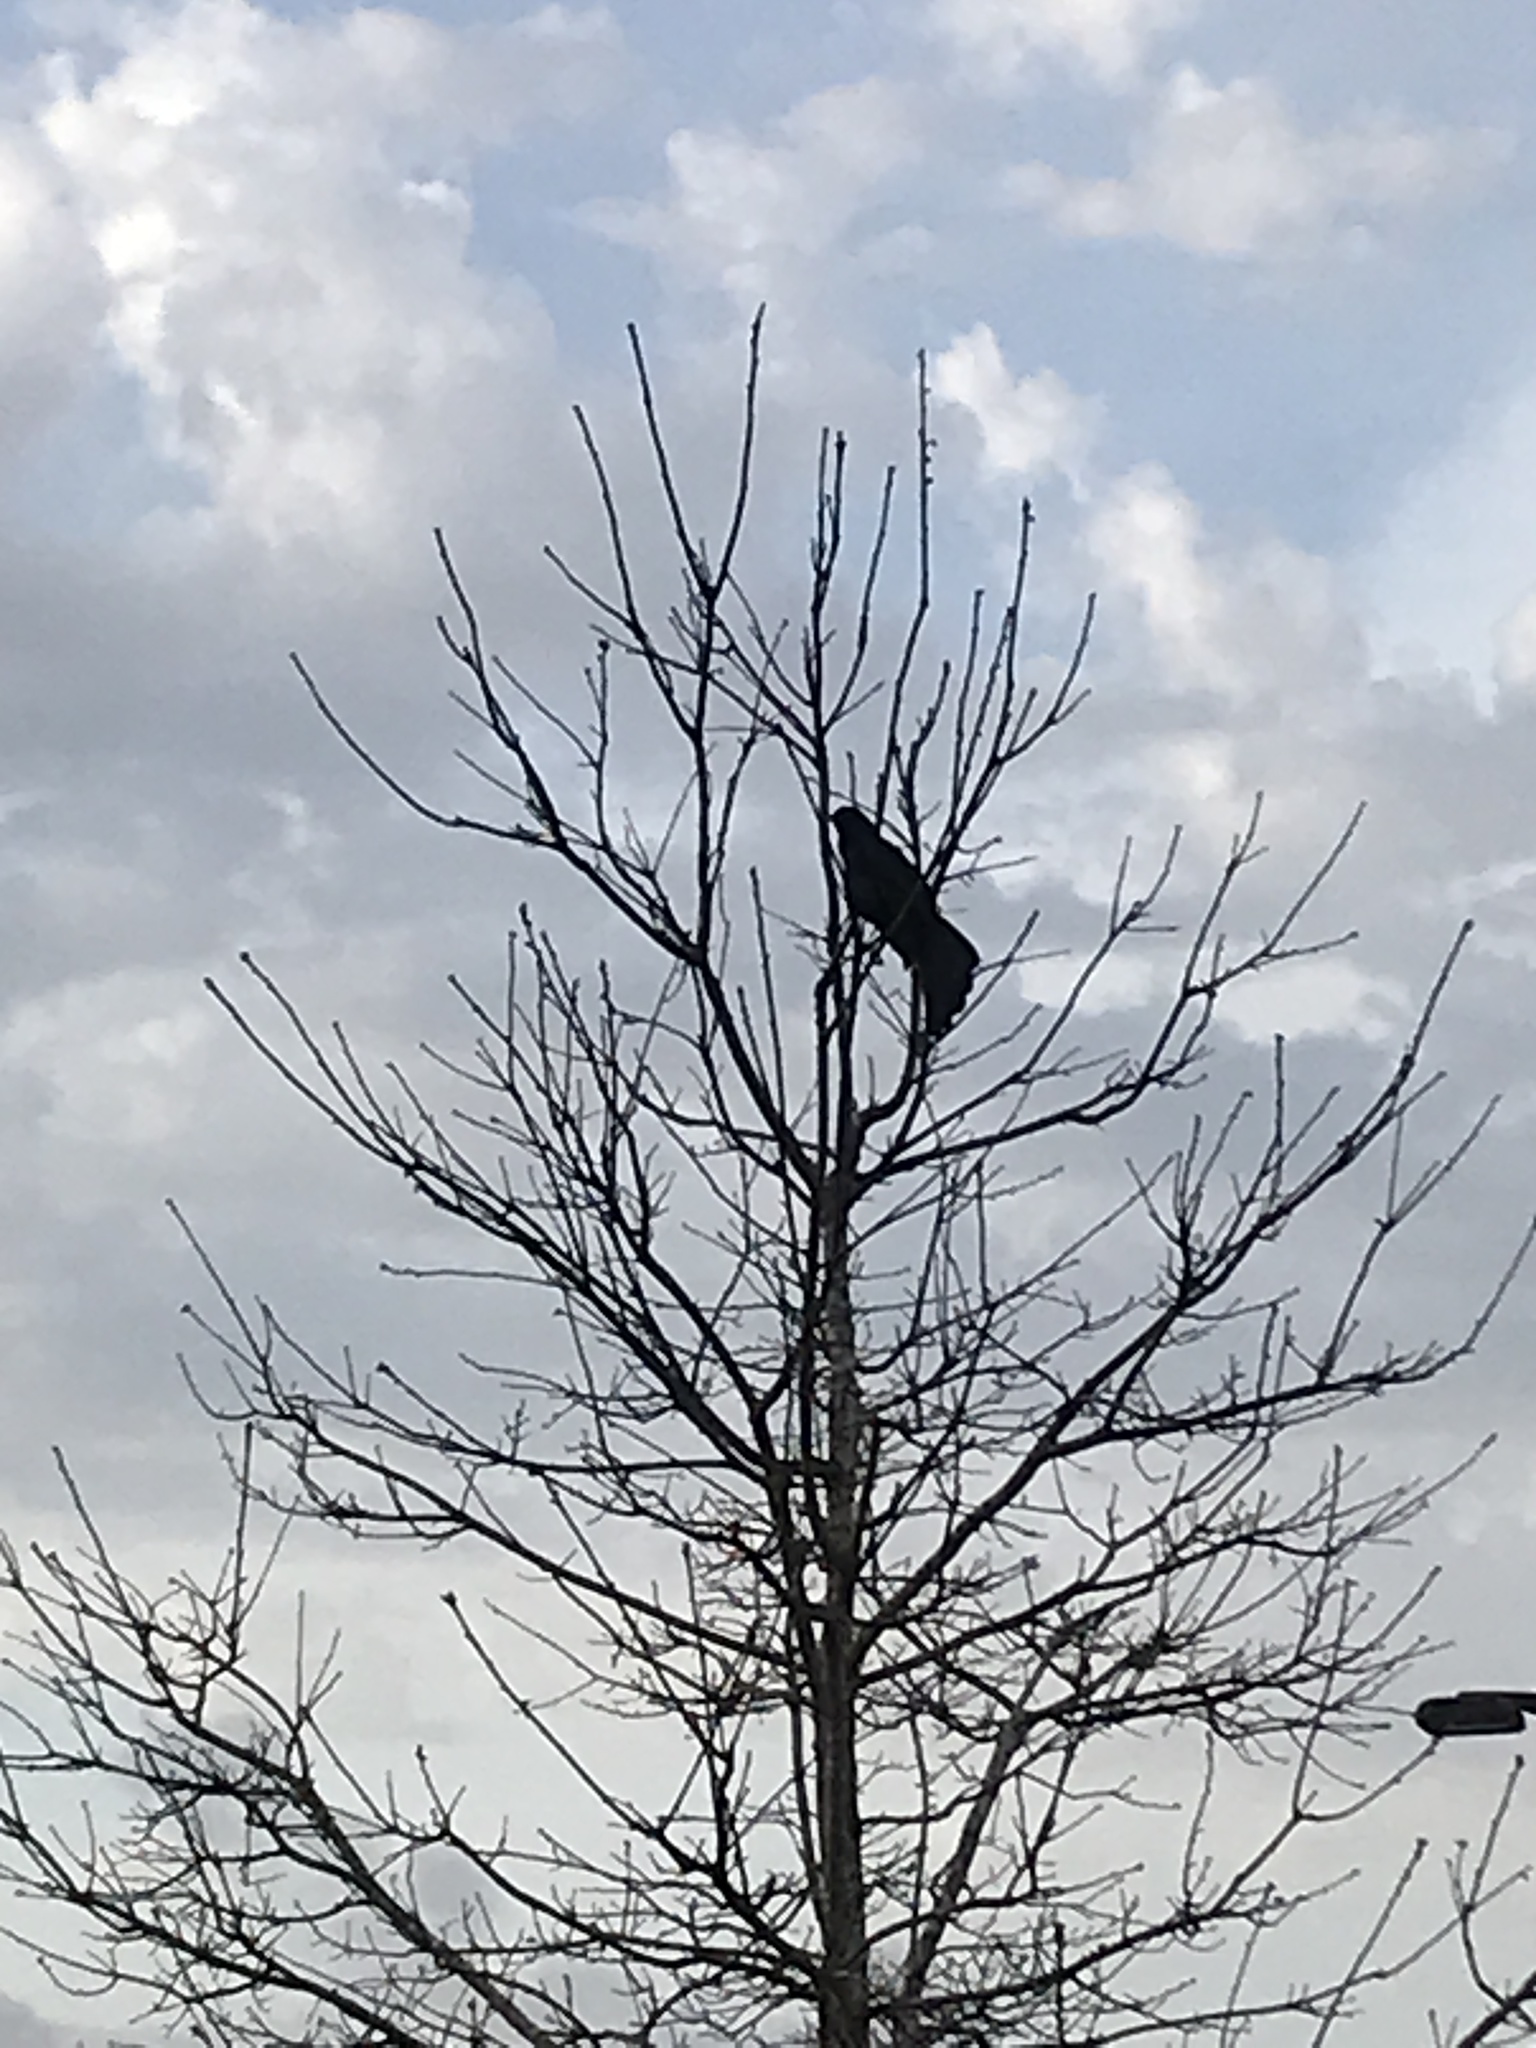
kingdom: Animalia
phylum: Chordata
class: Aves
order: Passeriformes
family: Icteridae
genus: Quiscalus
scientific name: Quiscalus mexicanus
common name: Great-tailed grackle
